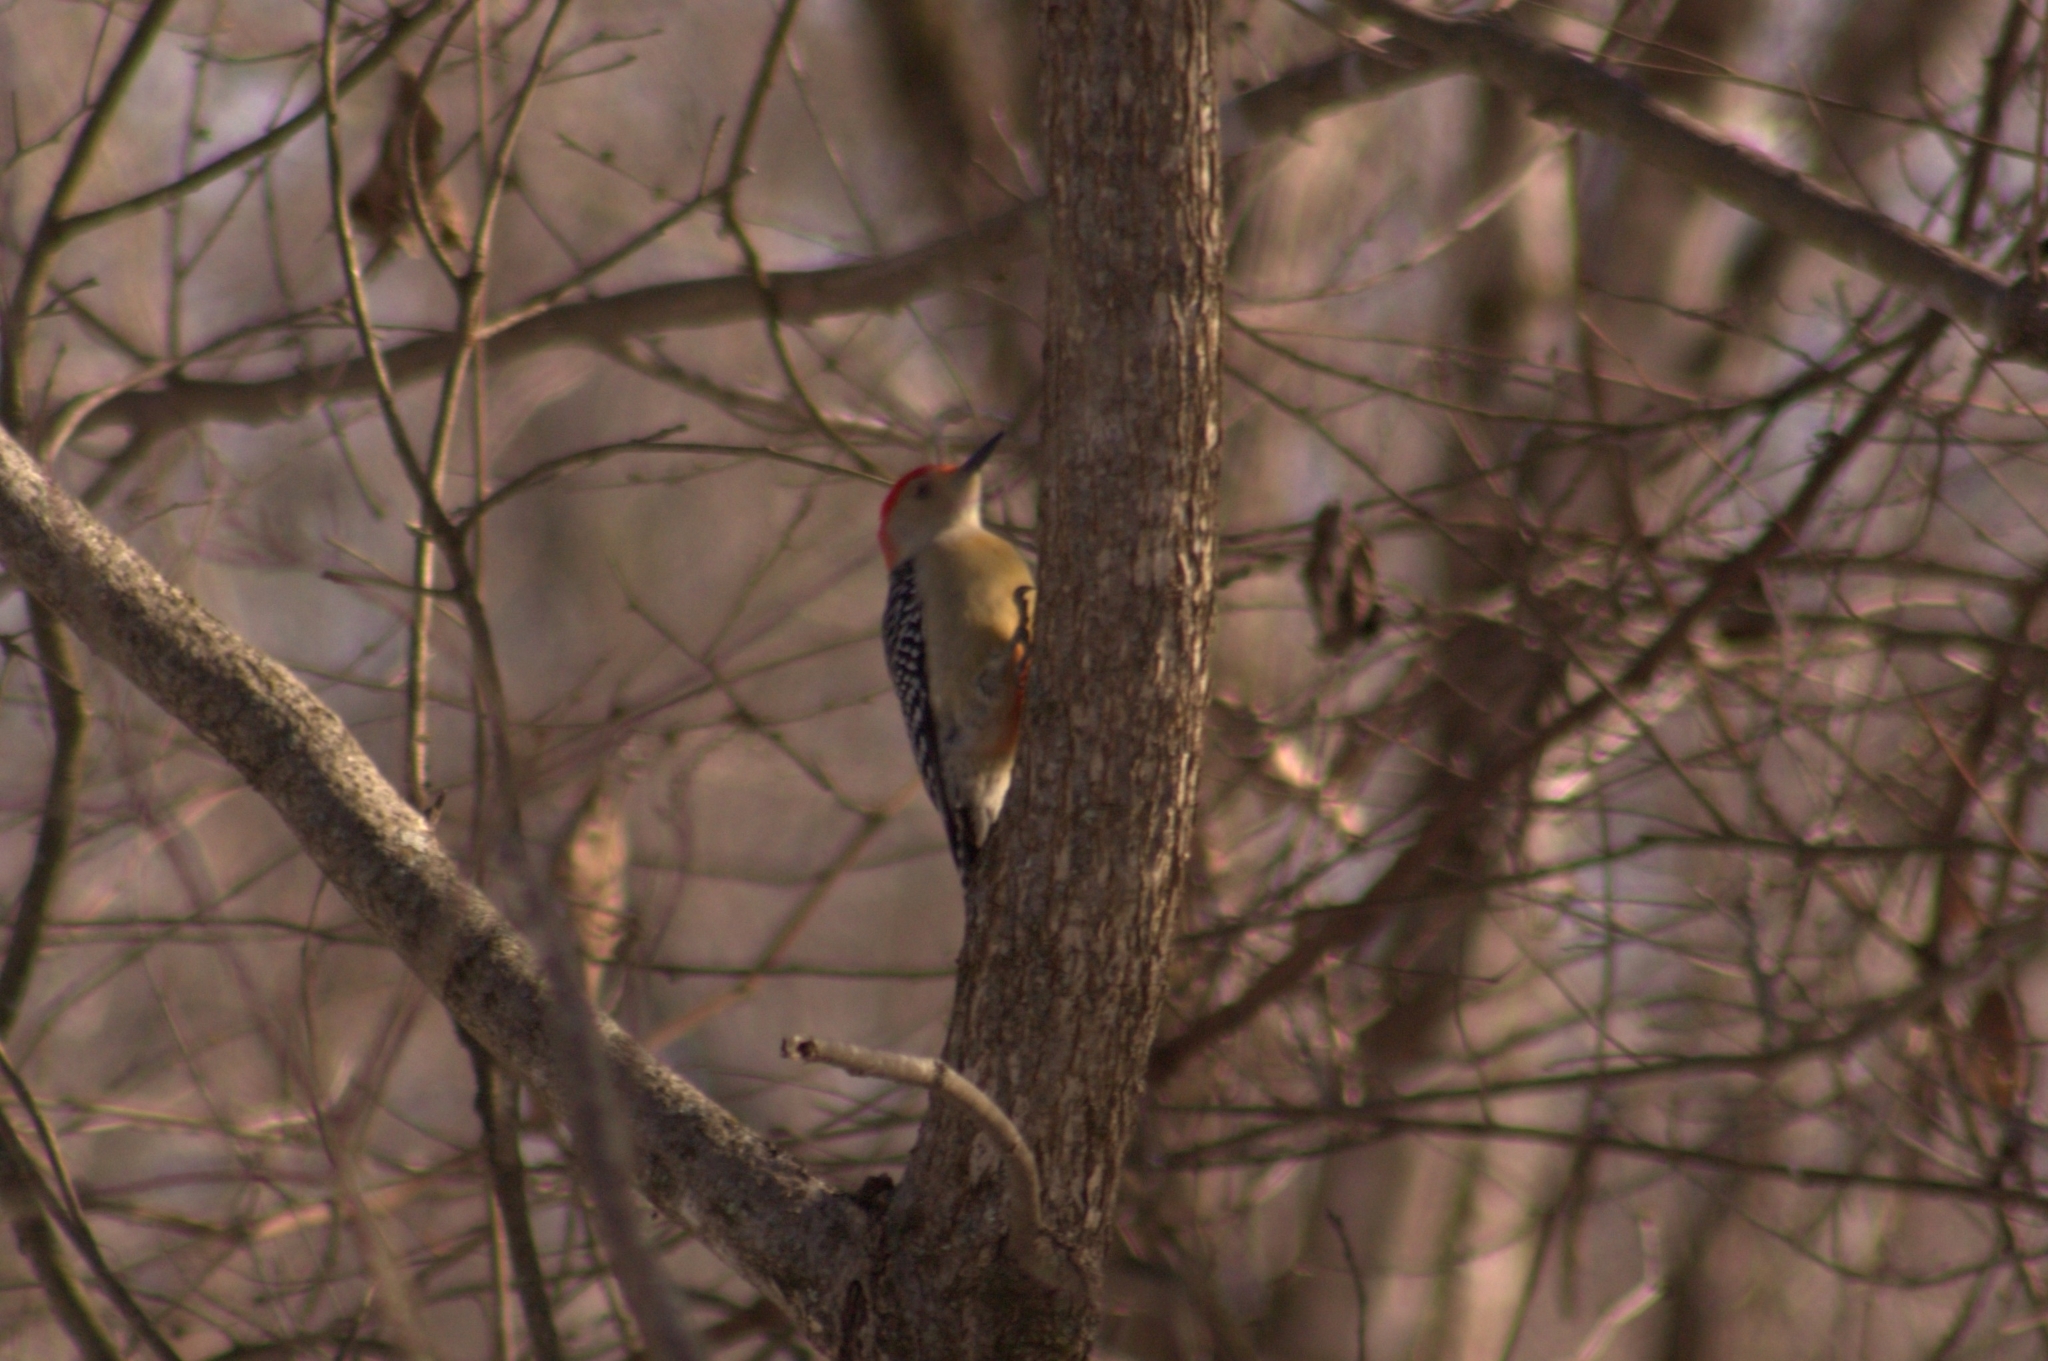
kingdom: Animalia
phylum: Chordata
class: Aves
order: Piciformes
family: Picidae
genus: Melanerpes
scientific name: Melanerpes carolinus
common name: Red-bellied woodpecker
